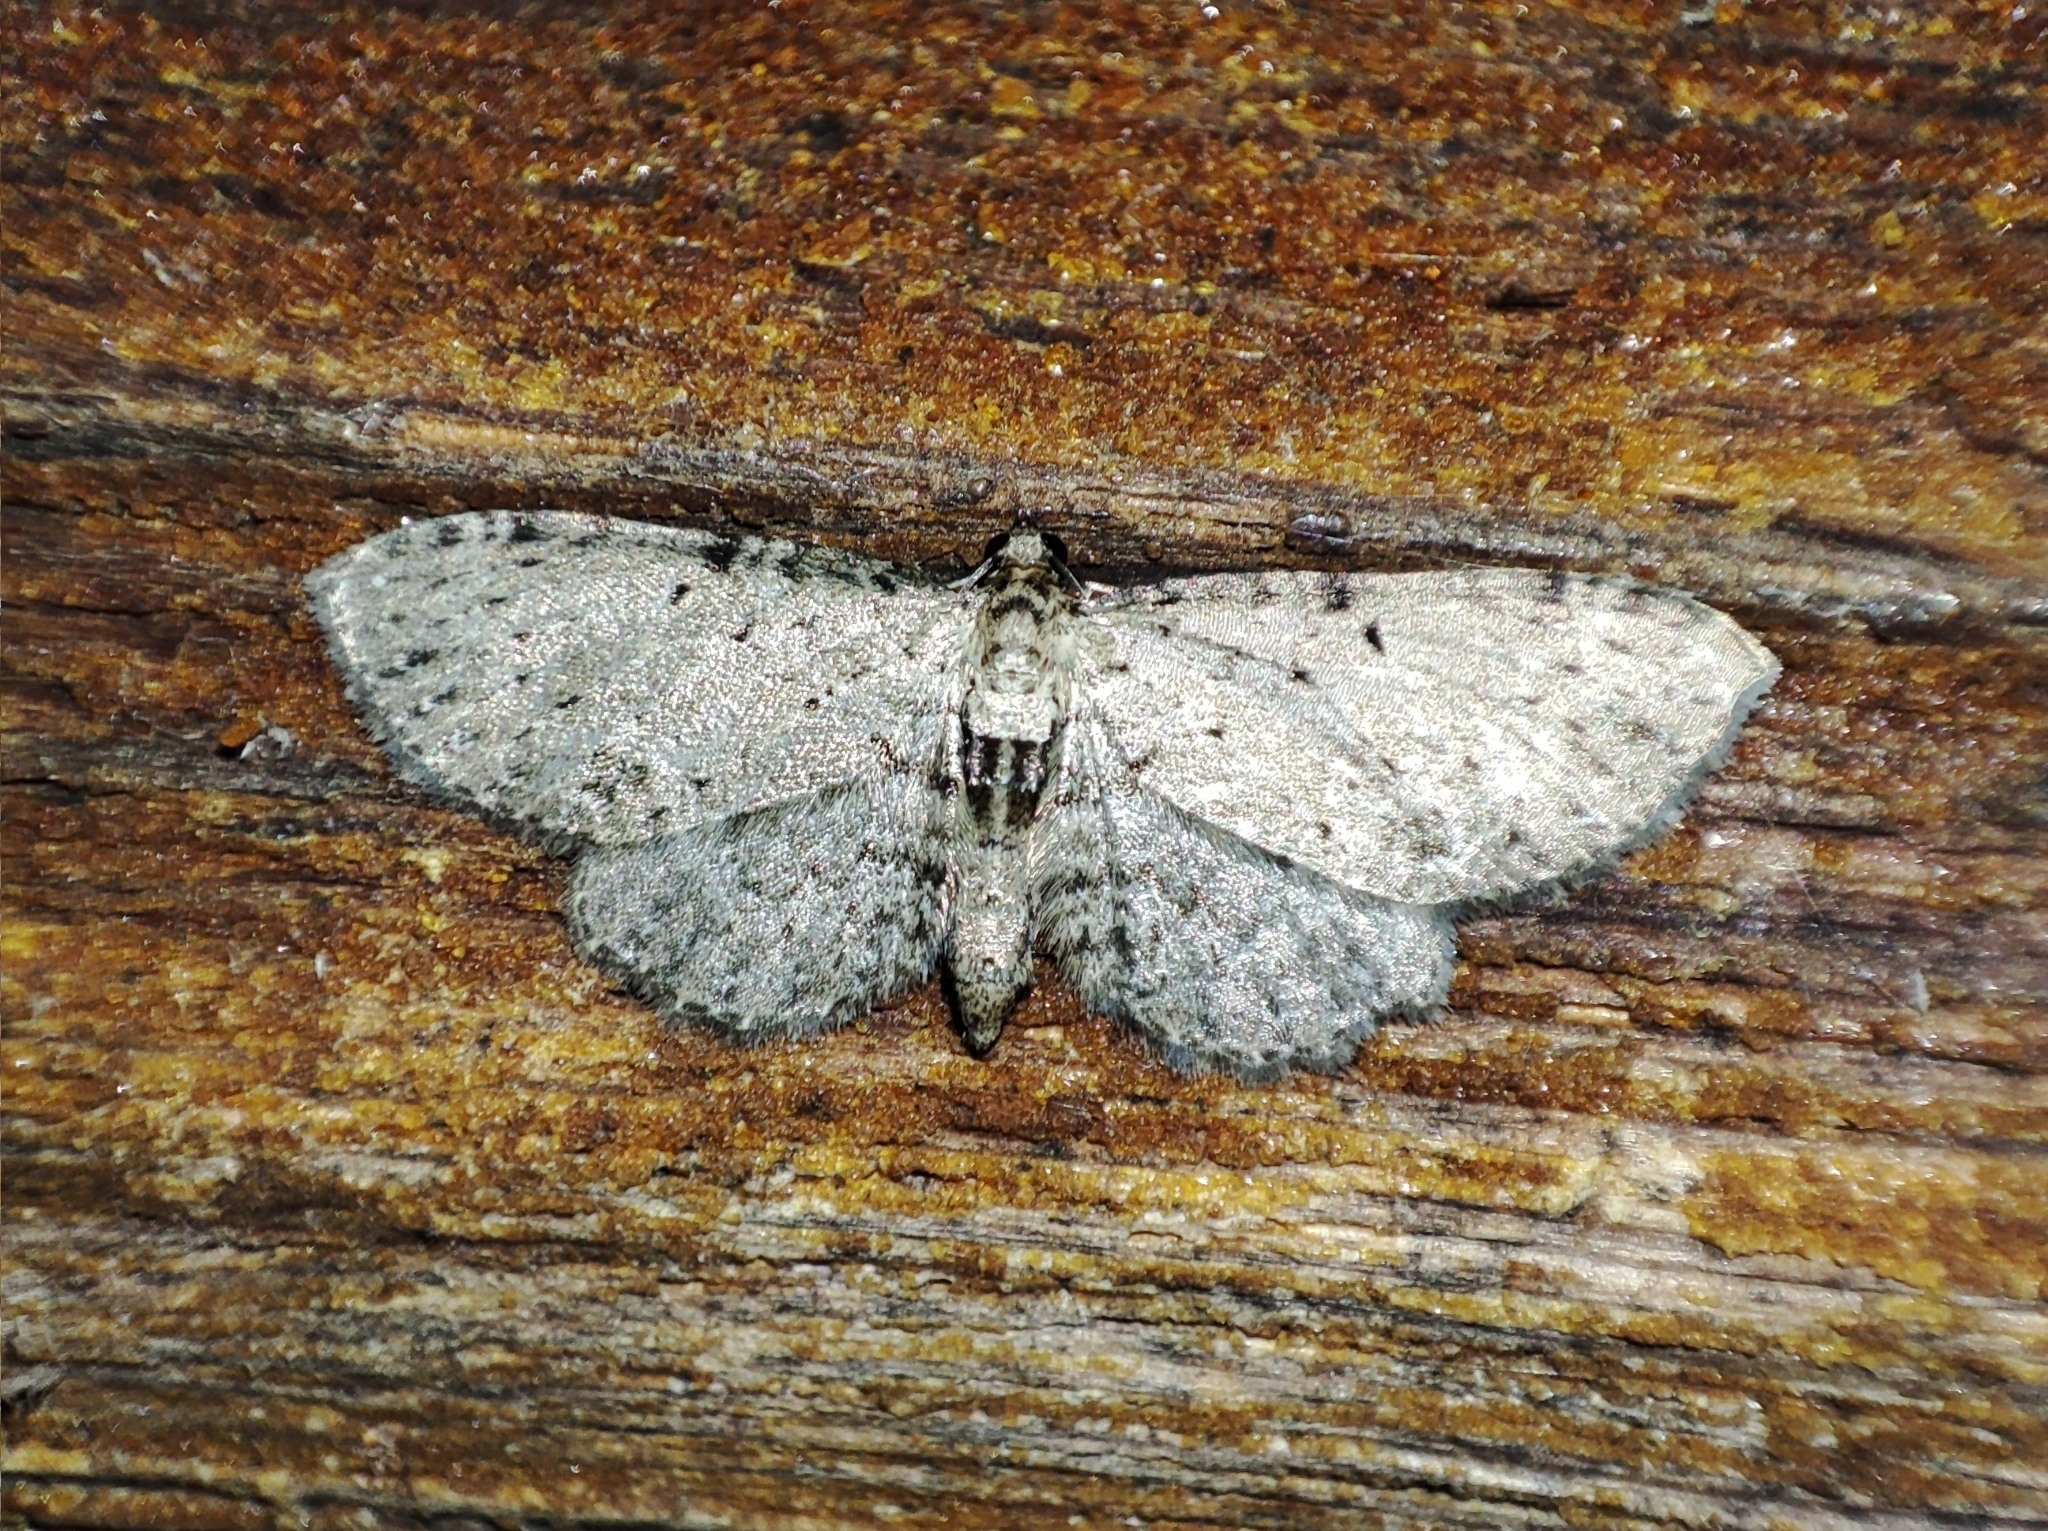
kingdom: Animalia
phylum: Arthropoda
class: Insecta
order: Lepidoptera
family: Geometridae
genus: Anticollix
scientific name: Anticollix sparsata
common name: Dentated pug
